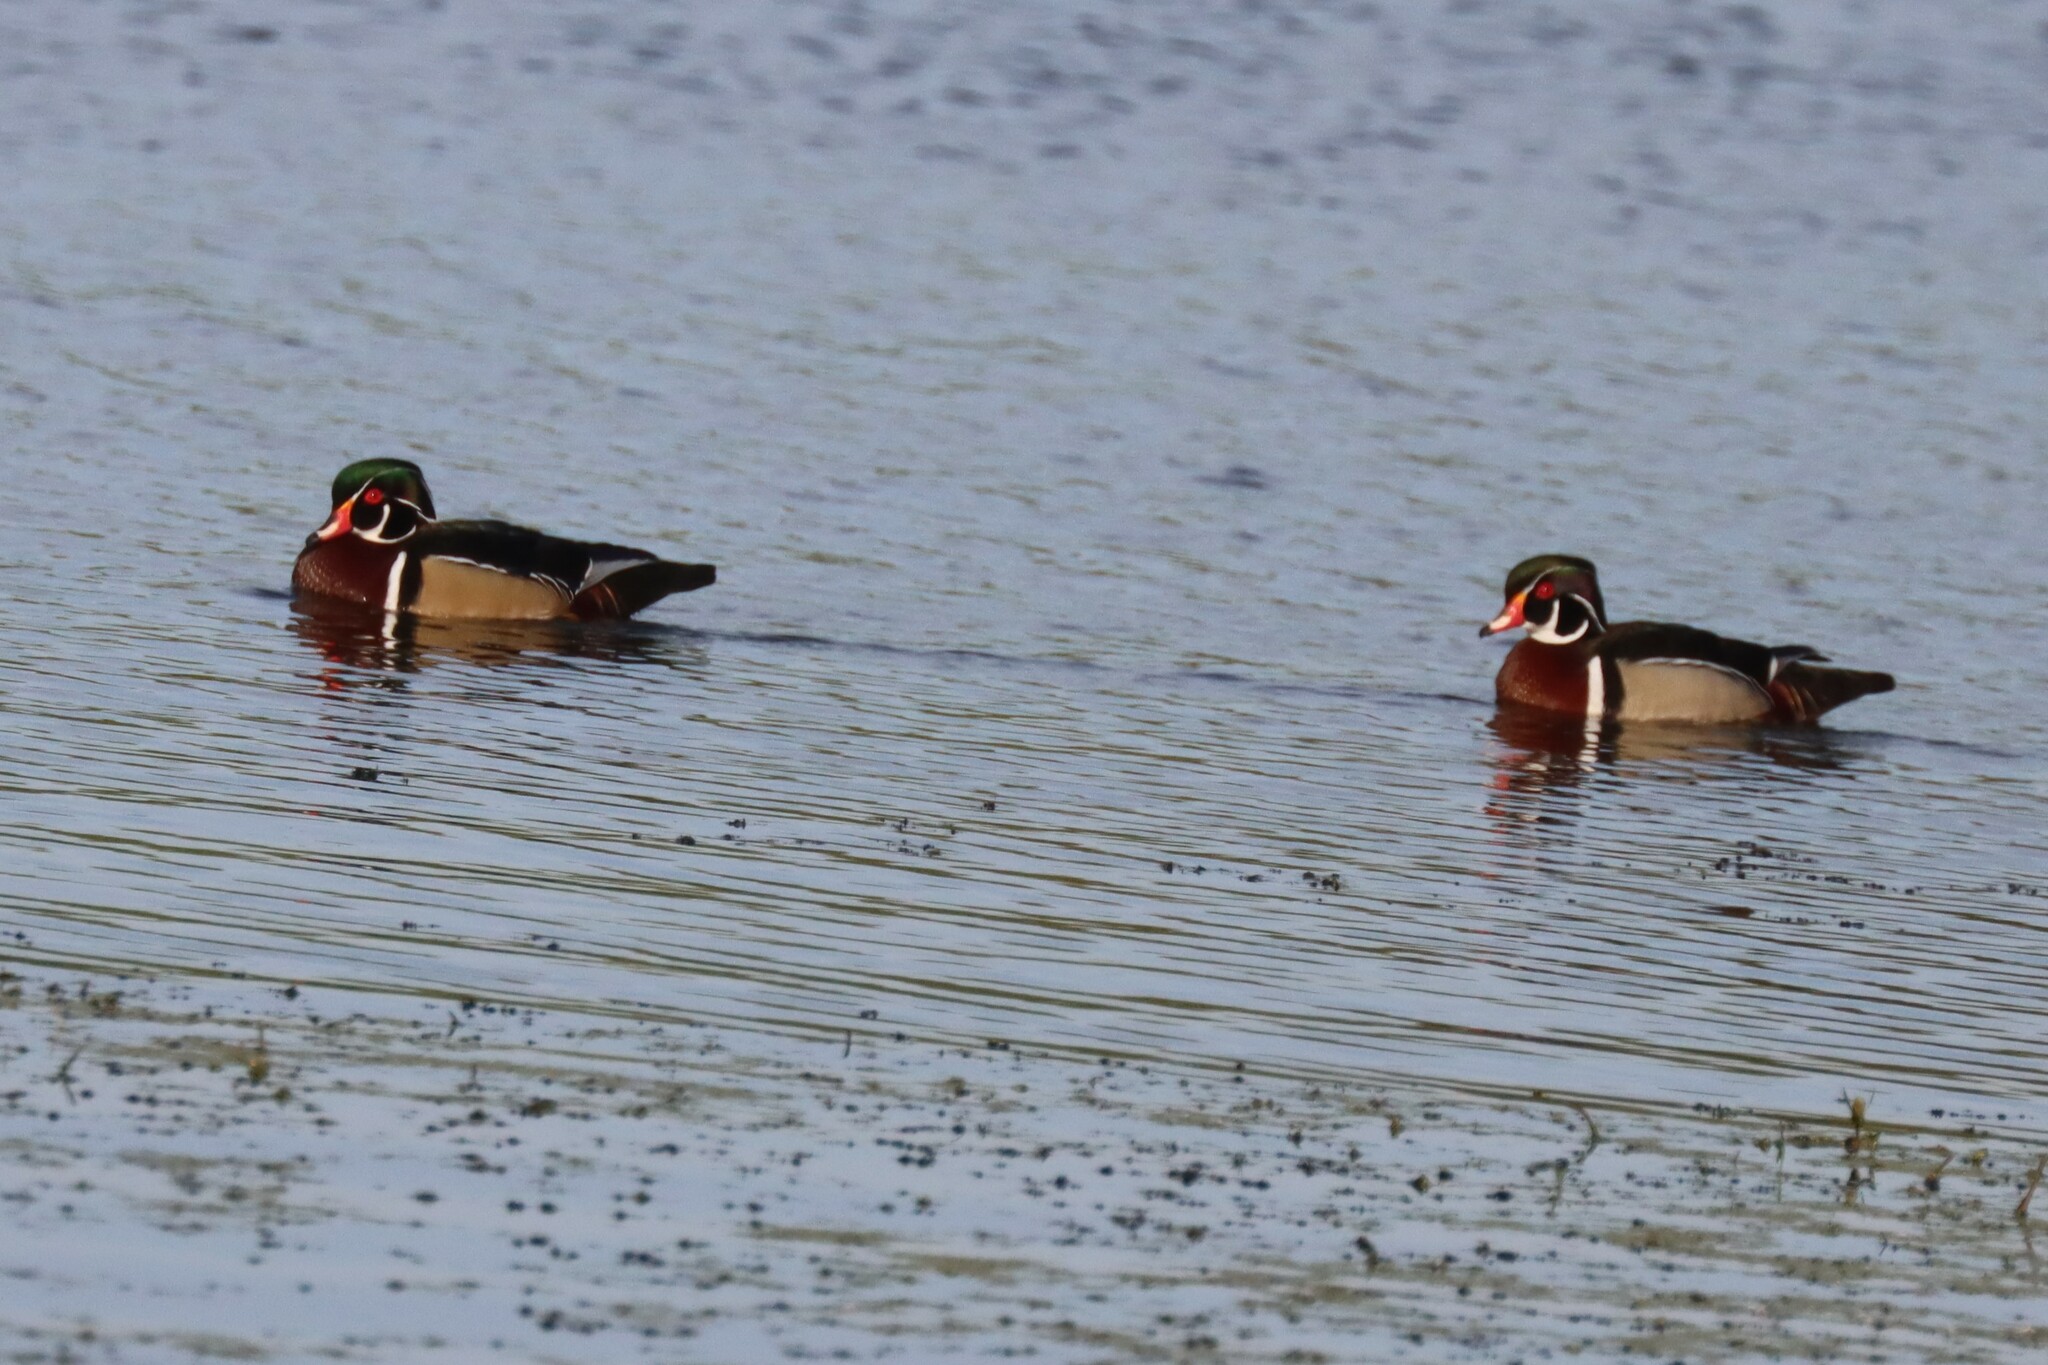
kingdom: Animalia
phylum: Chordata
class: Aves
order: Anseriformes
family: Anatidae
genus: Aix
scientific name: Aix sponsa
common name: Wood duck
